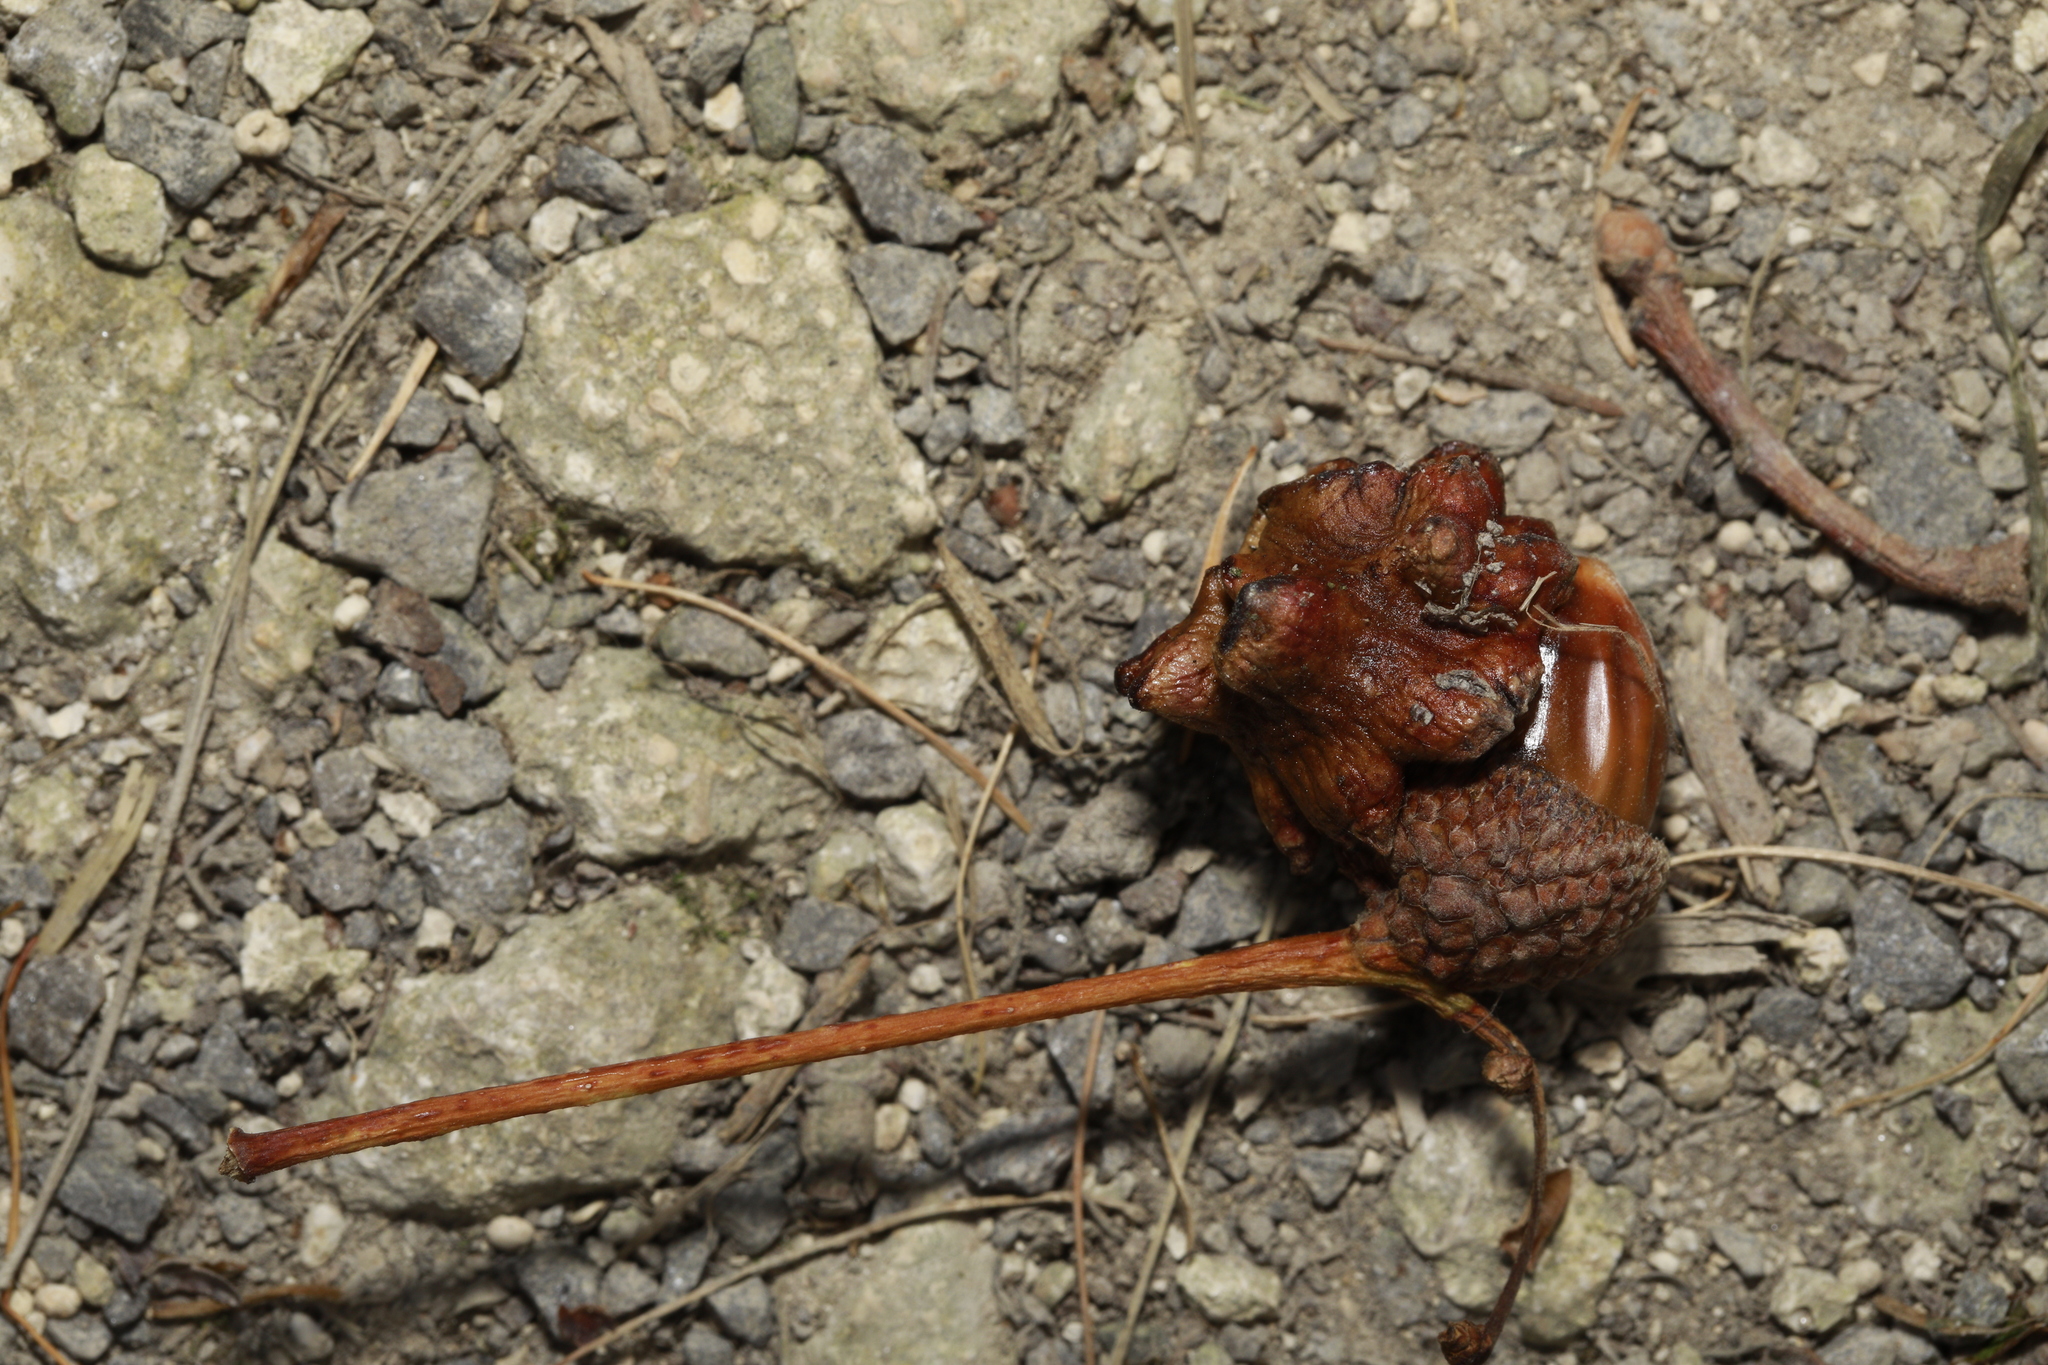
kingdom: Animalia
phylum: Arthropoda
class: Insecta
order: Hymenoptera
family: Cynipidae
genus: Andricus
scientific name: Andricus quercuscalicis
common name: Knopper gall
